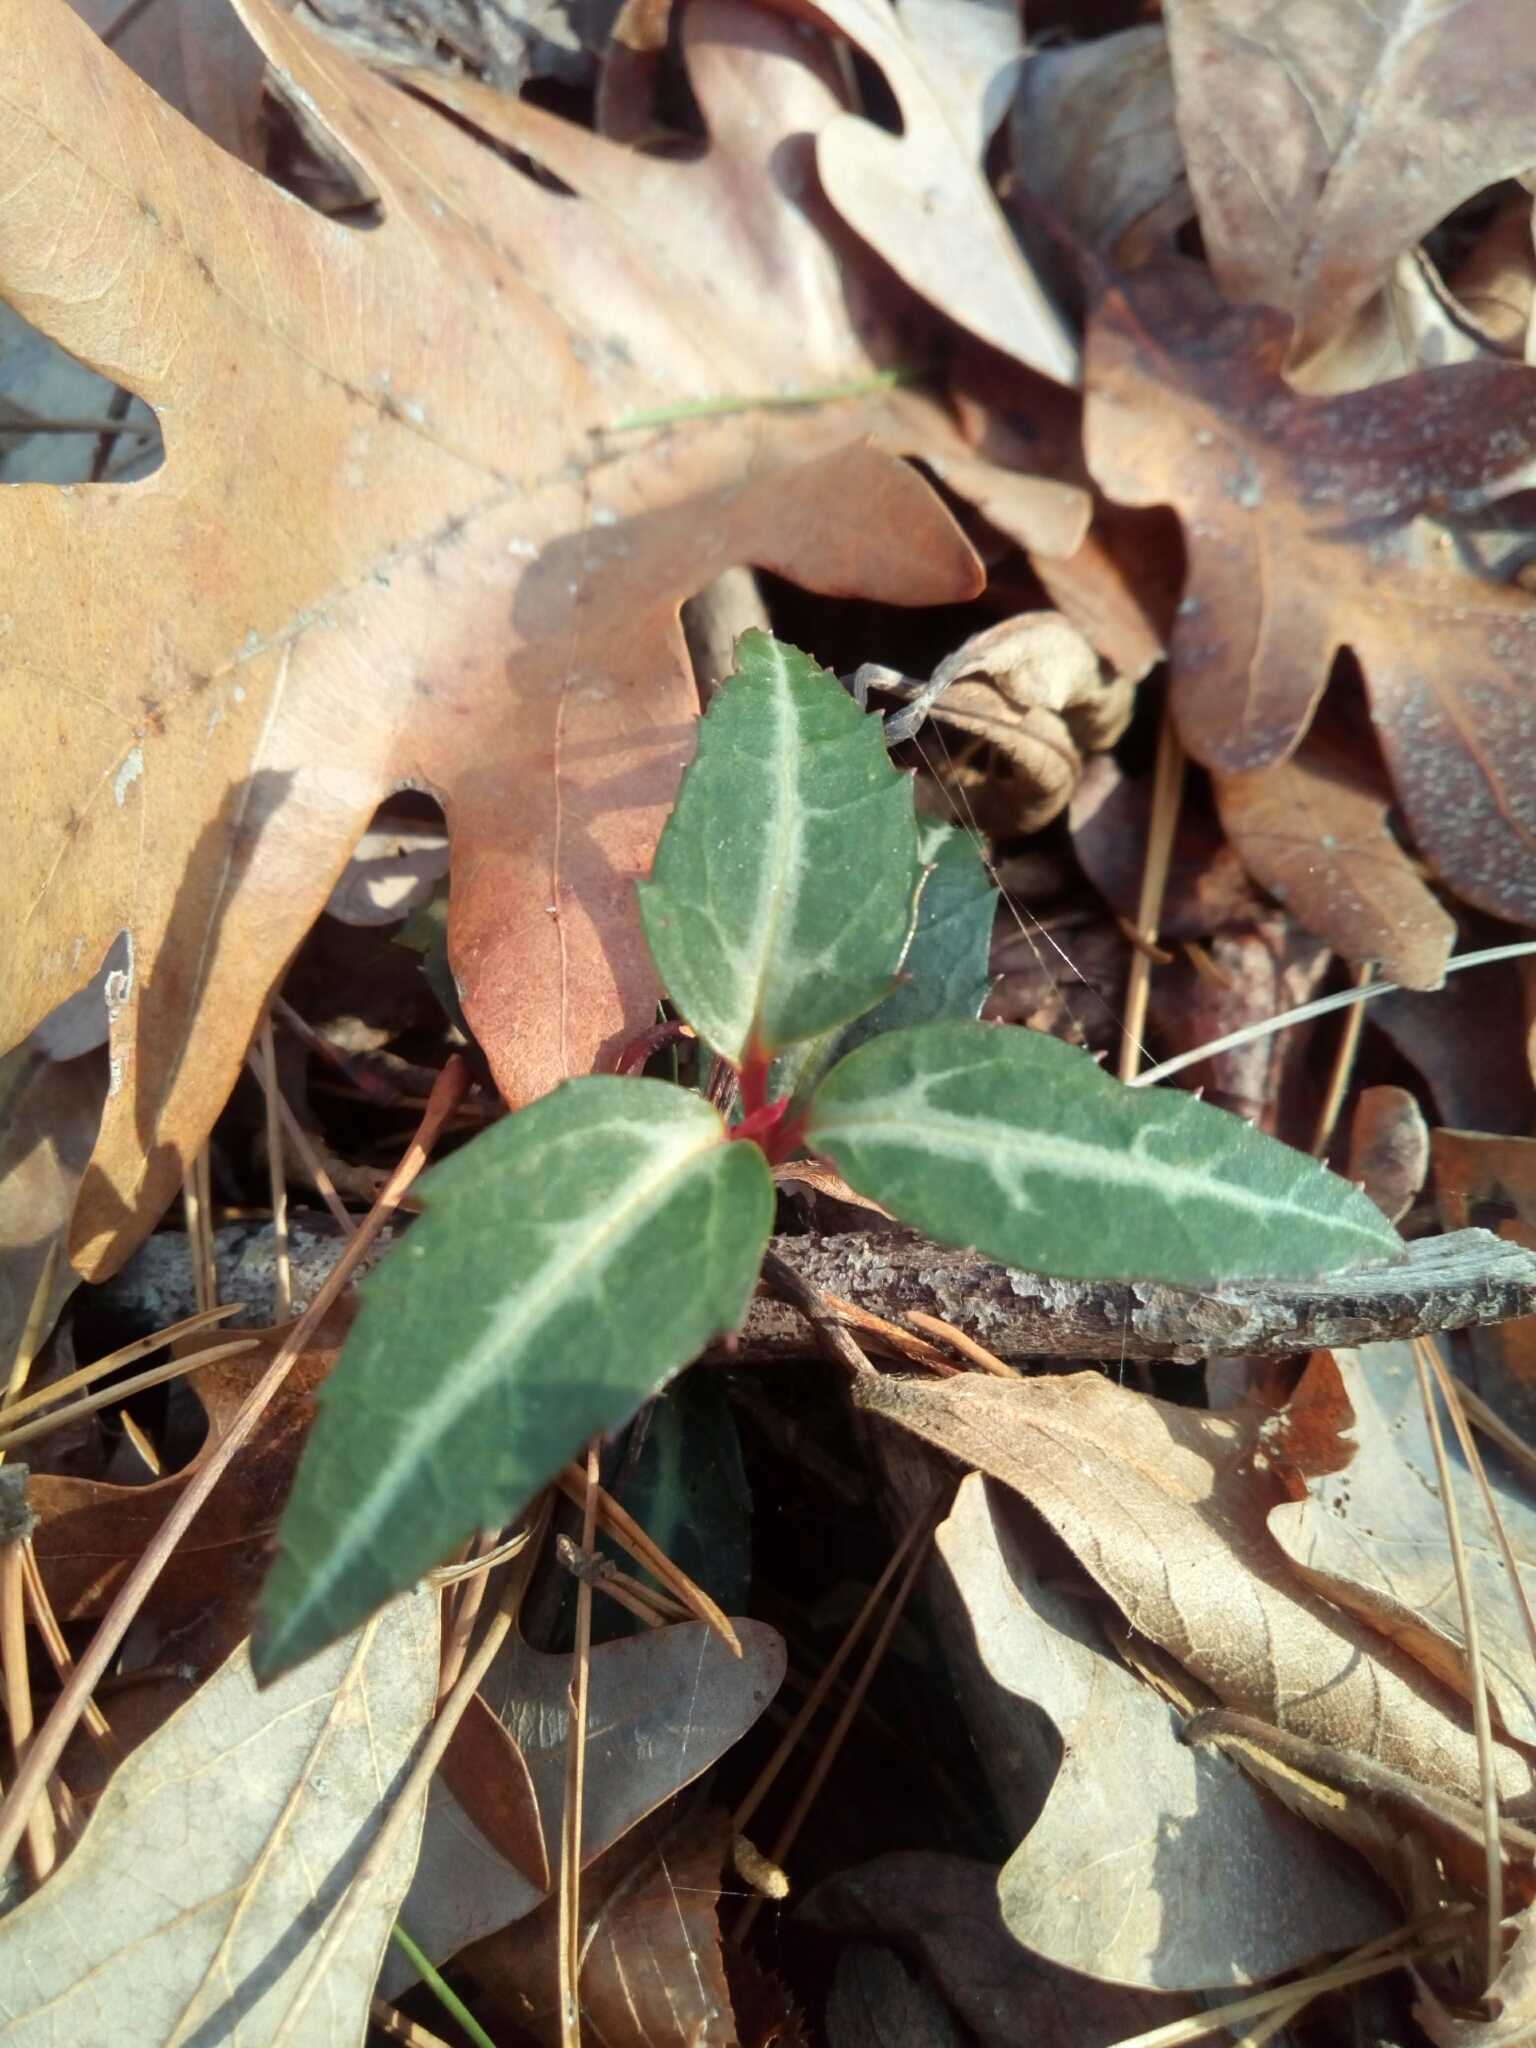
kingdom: Plantae
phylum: Tracheophyta
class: Magnoliopsida
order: Ericales
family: Ericaceae
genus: Chimaphila
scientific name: Chimaphila maculata
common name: Spotted pipsissewa
